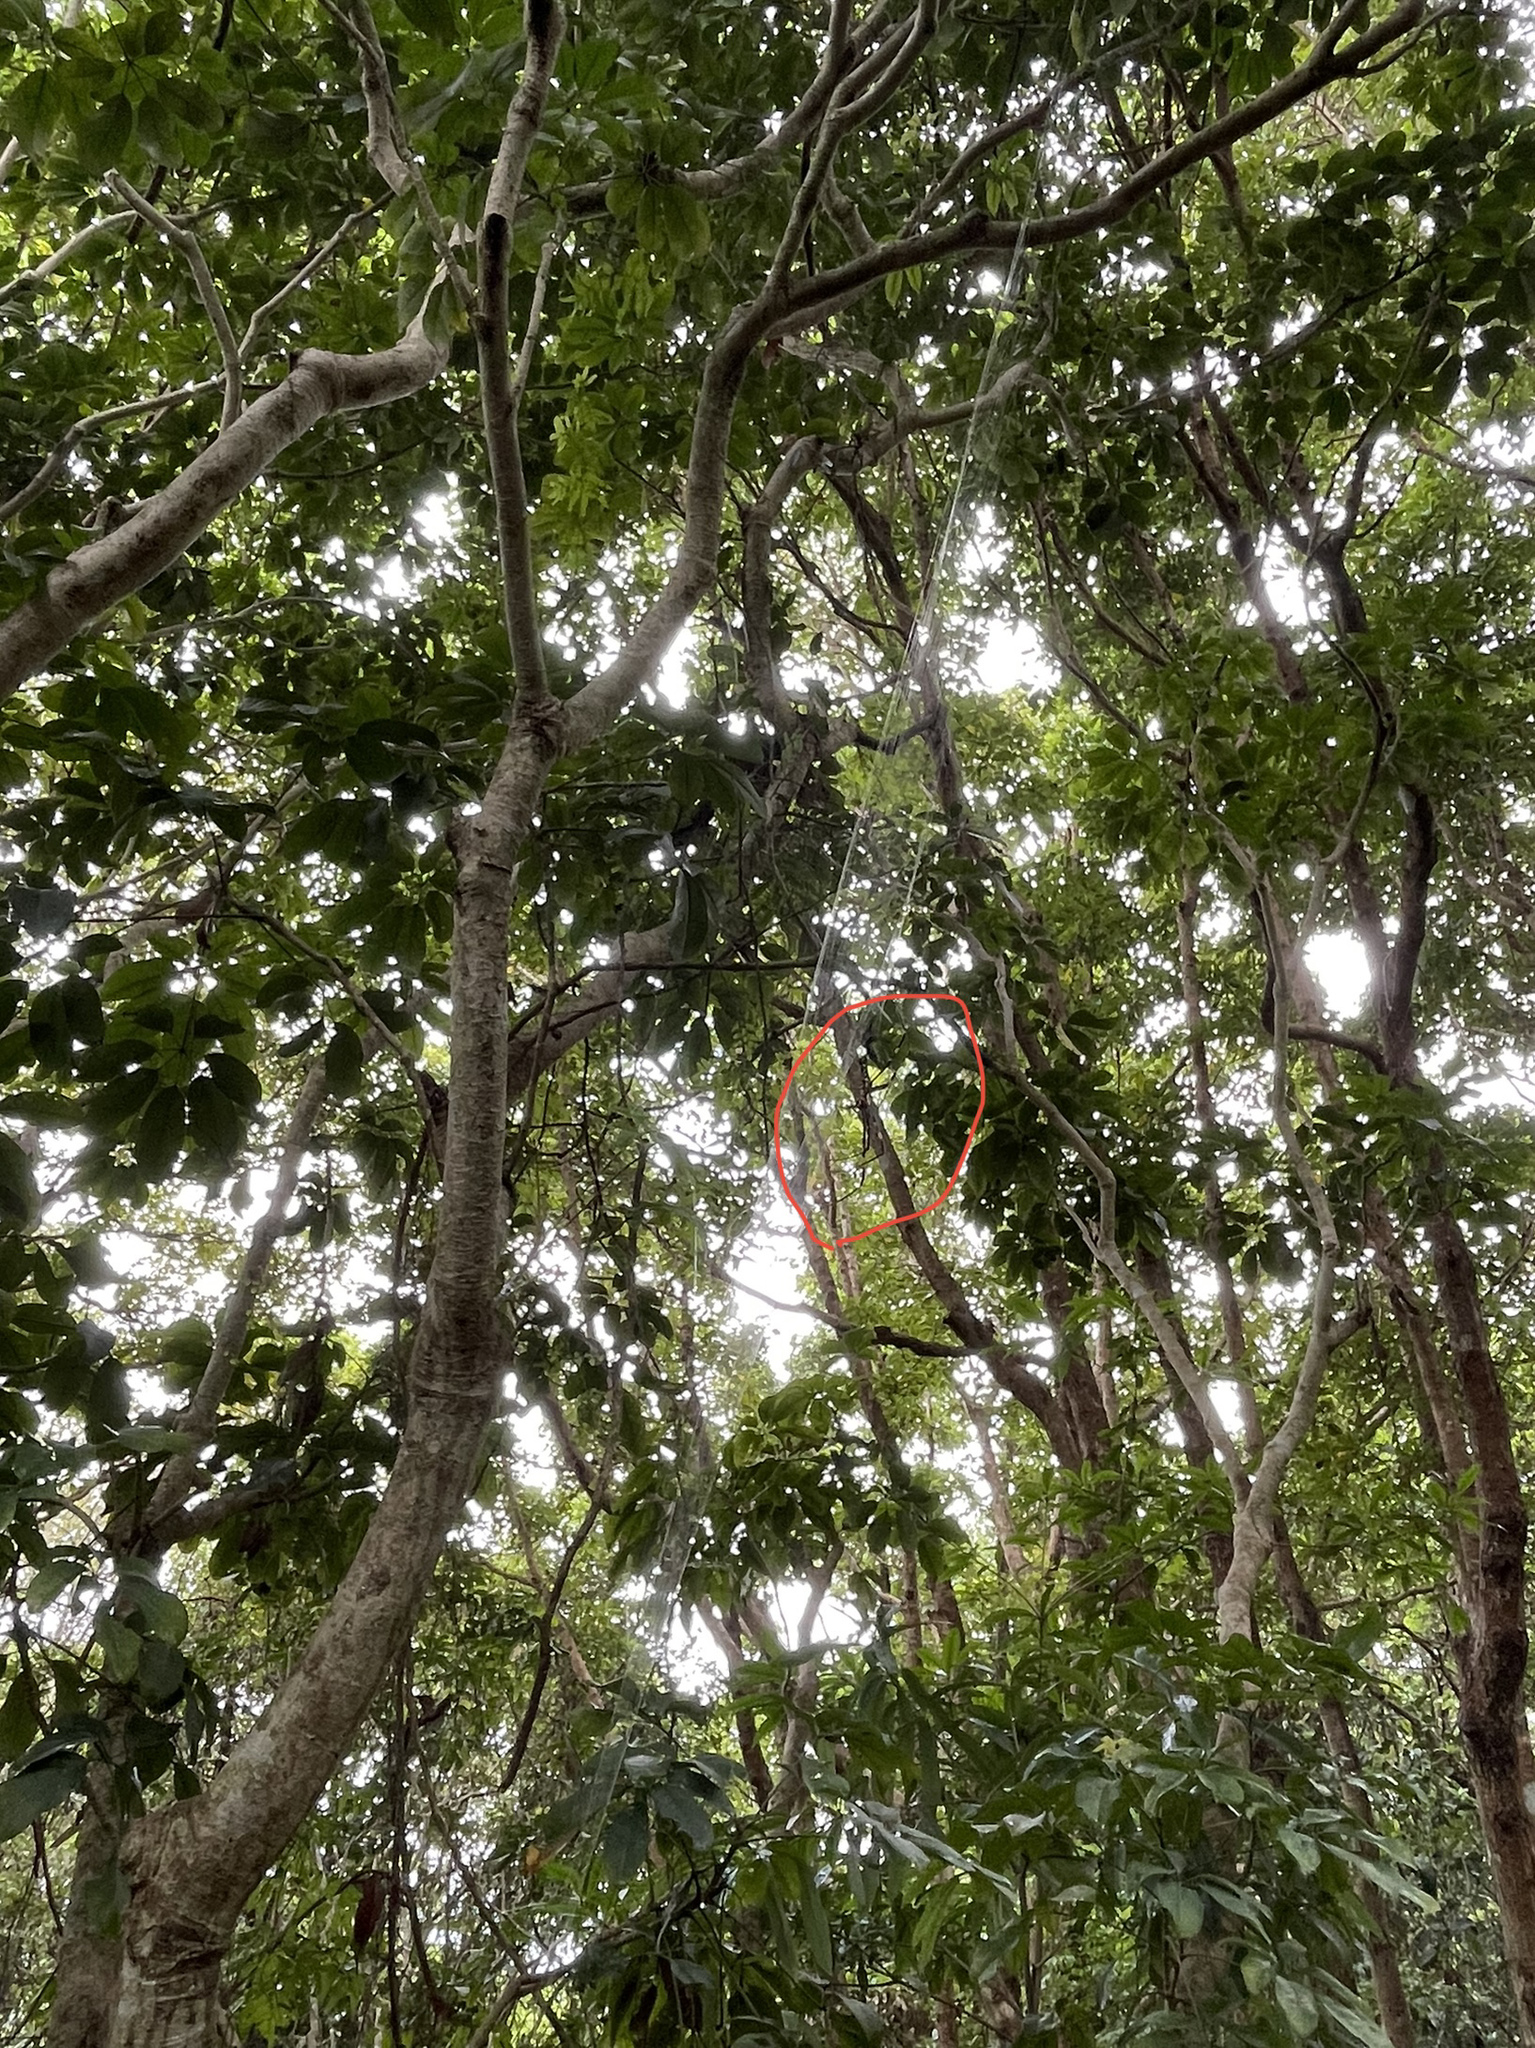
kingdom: Animalia
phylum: Arthropoda
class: Arachnida
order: Araneae
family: Araneidae
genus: Nephila
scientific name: Nephila pilipes
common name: Giant golden orb weaver
